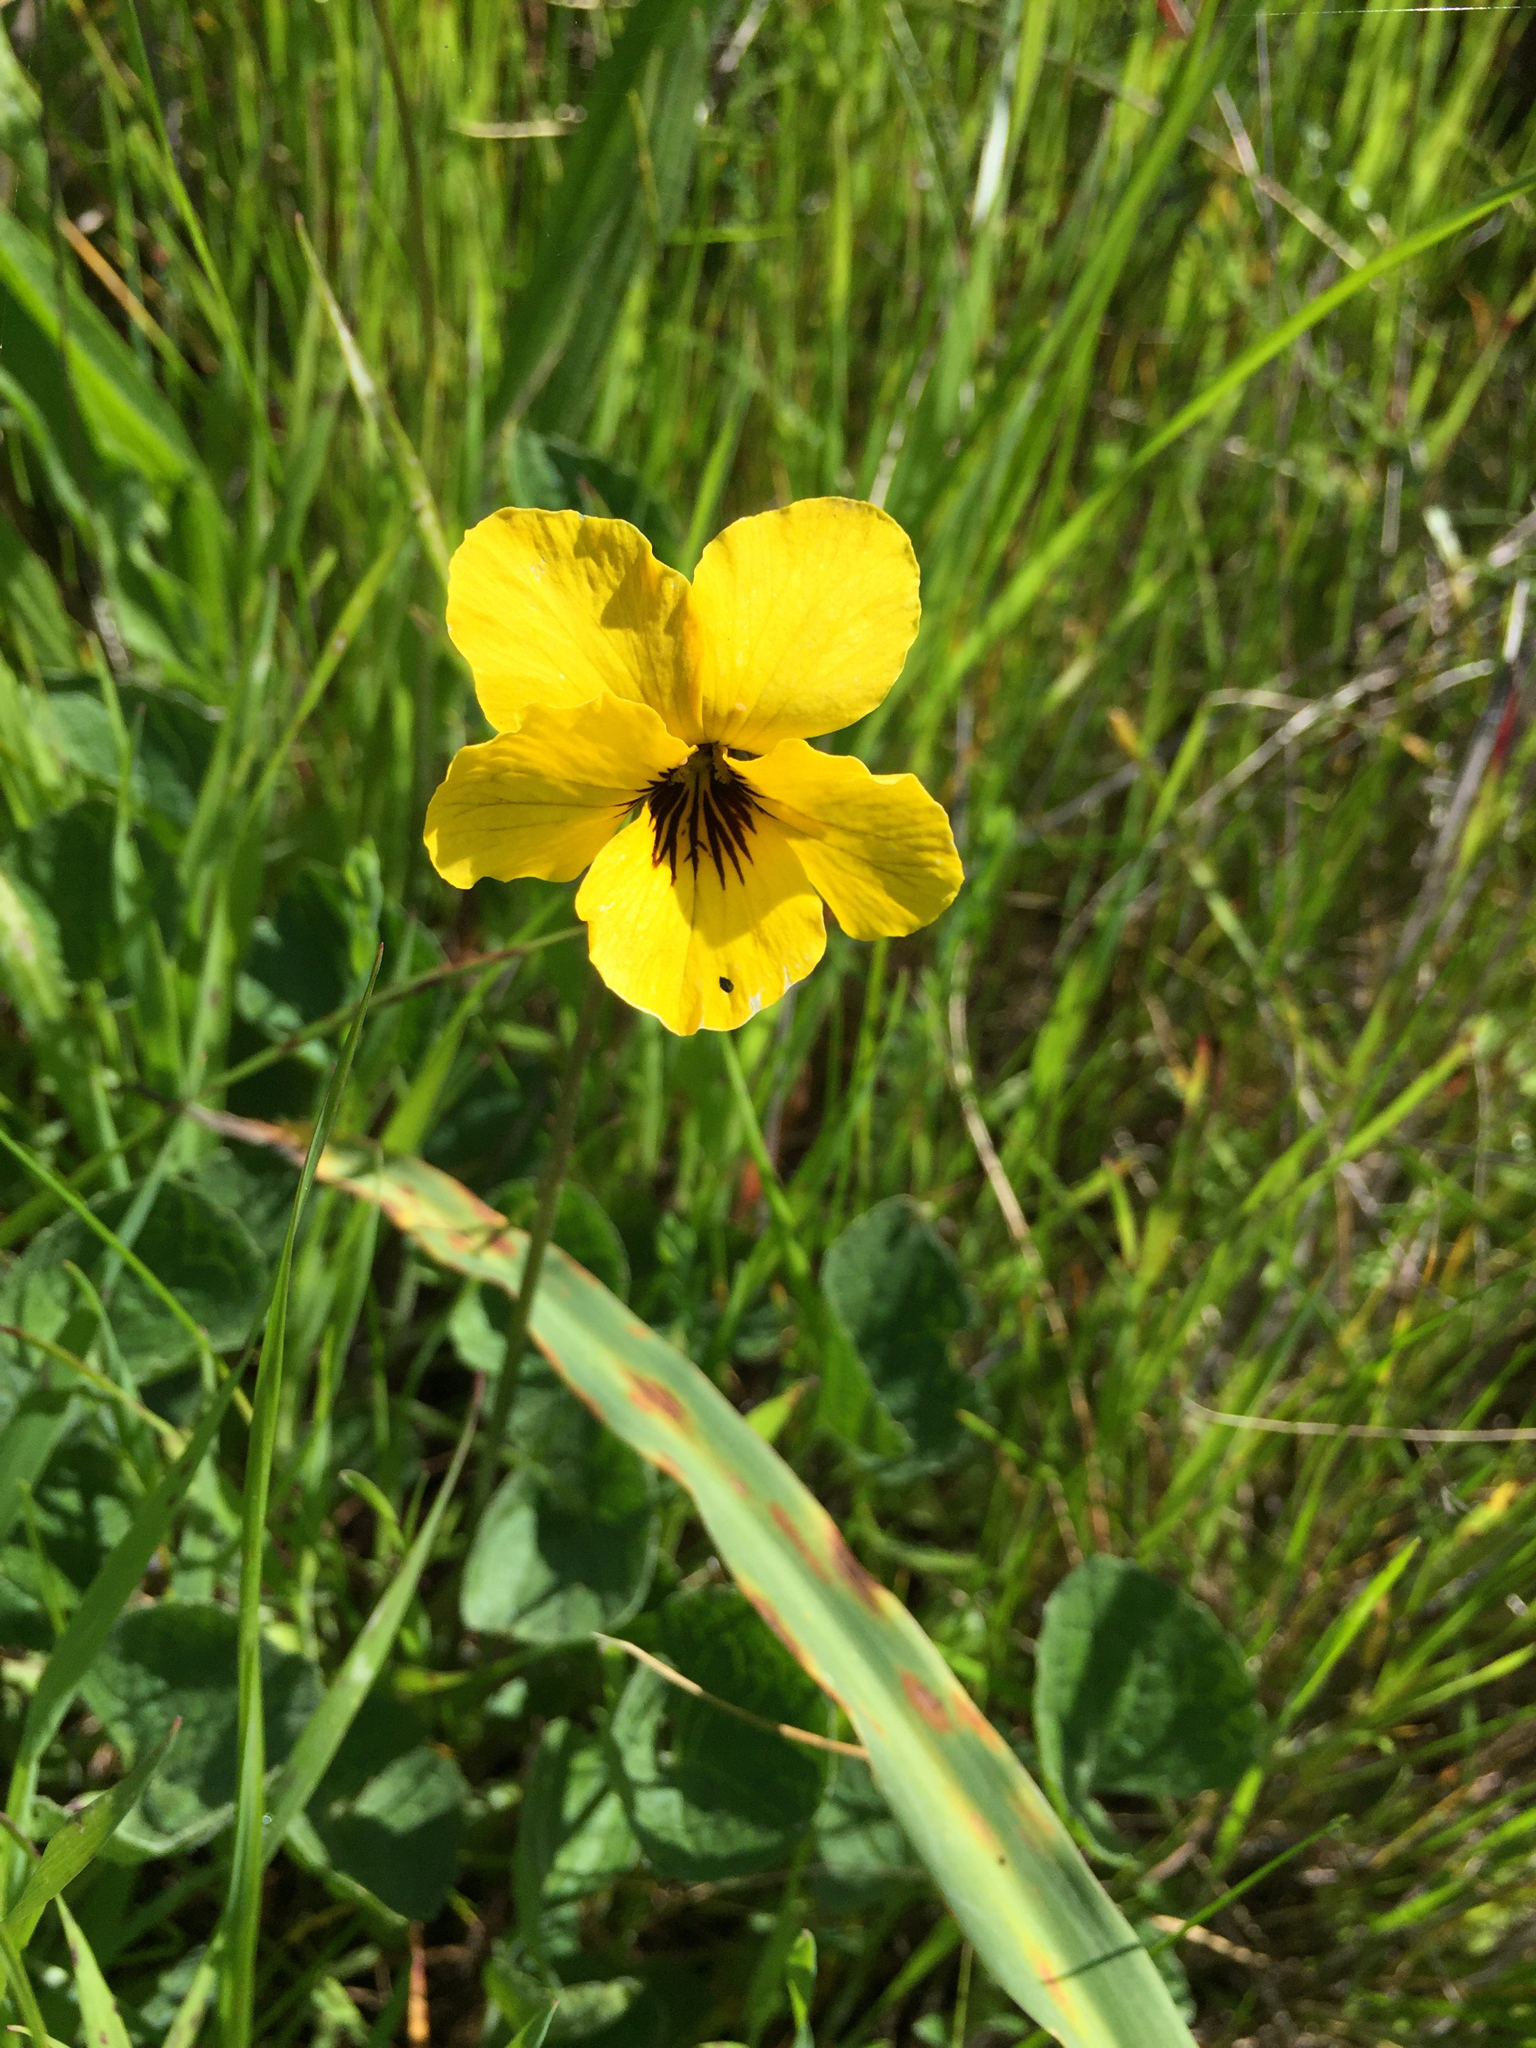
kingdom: Plantae
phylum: Tracheophyta
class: Magnoliopsida
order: Malpighiales
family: Violaceae
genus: Viola
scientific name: Viola pedunculata
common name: California golden violet
